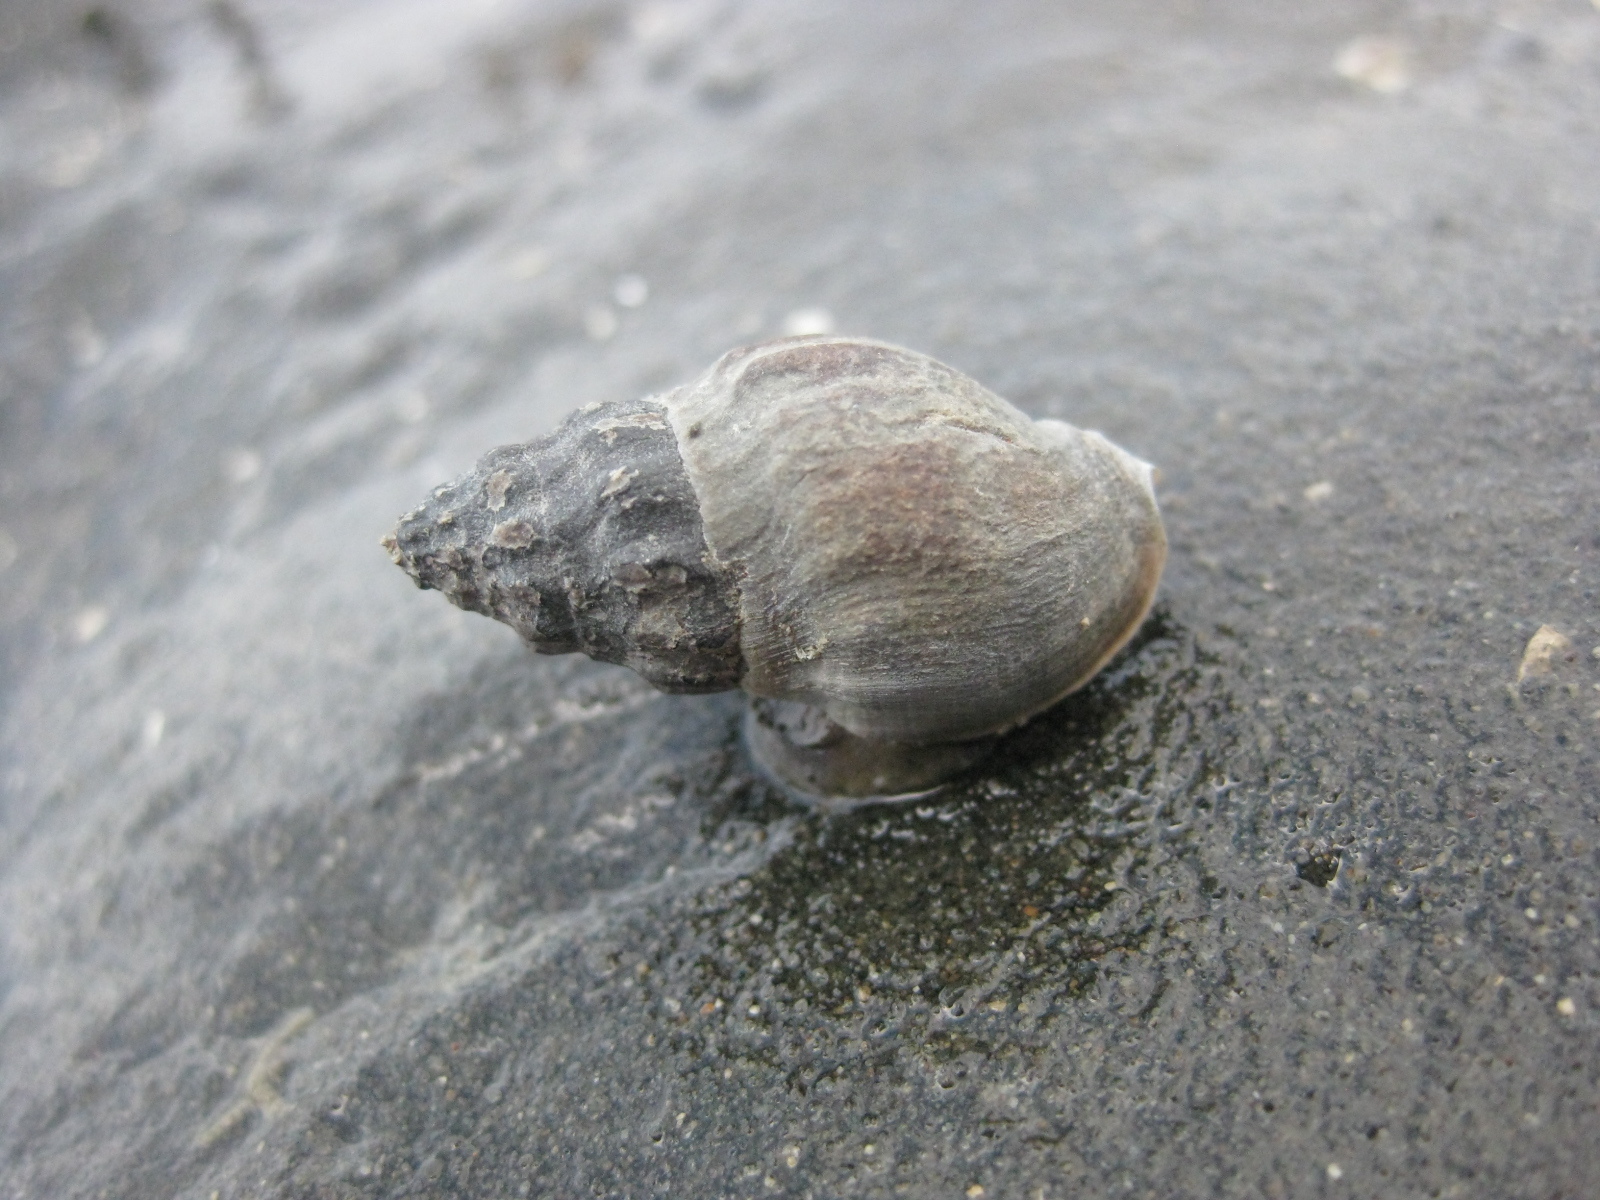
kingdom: Animalia
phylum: Mollusca
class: Gastropoda
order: Neogastropoda
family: Cominellidae
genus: Cominella
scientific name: Cominella glandiformis
